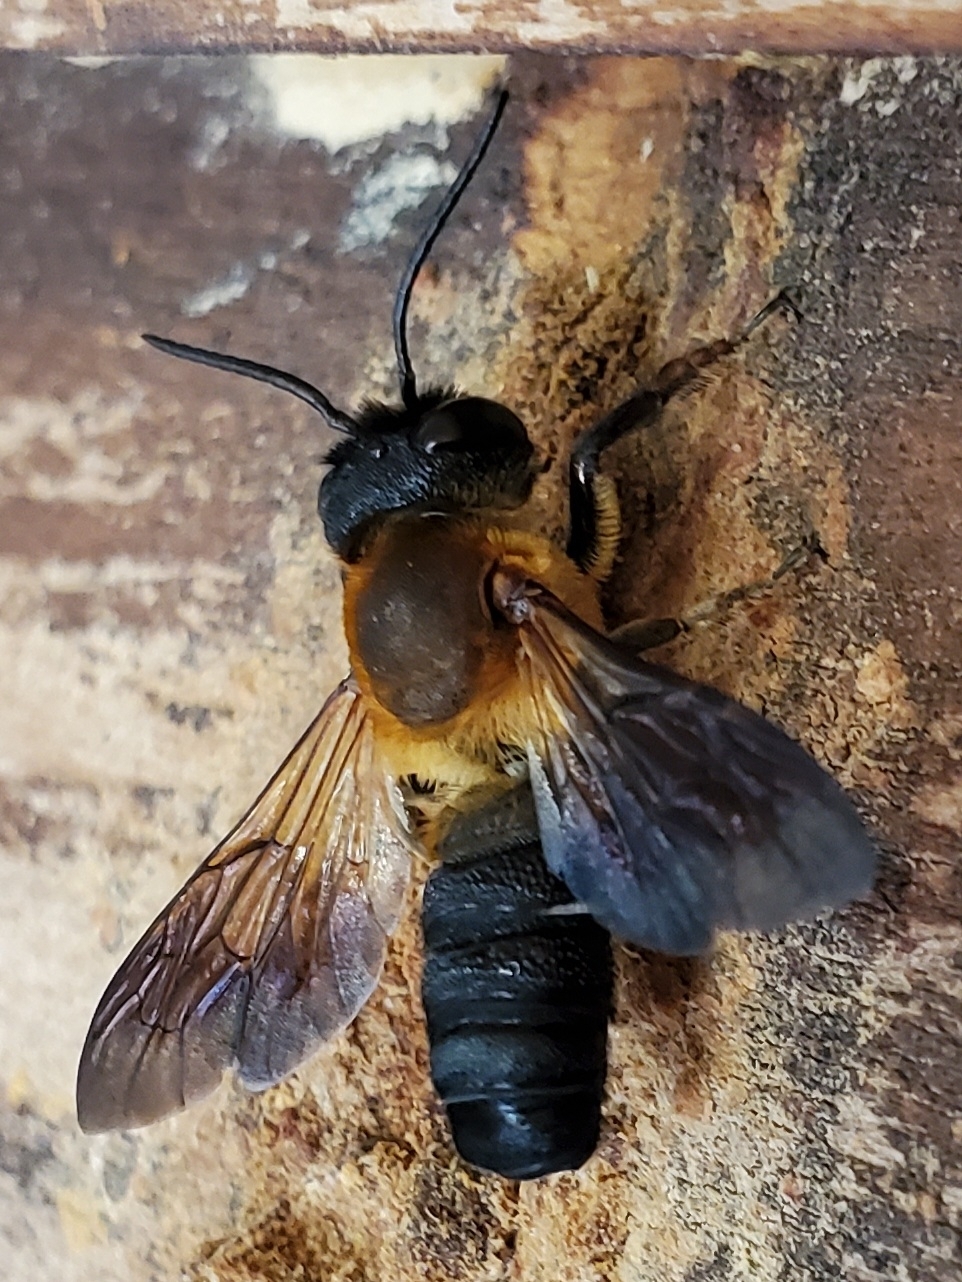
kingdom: Animalia
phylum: Arthropoda
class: Insecta
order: Hymenoptera
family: Megachilidae
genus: Megachile
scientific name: Megachile sculpturalis
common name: Sculptured resin bee
